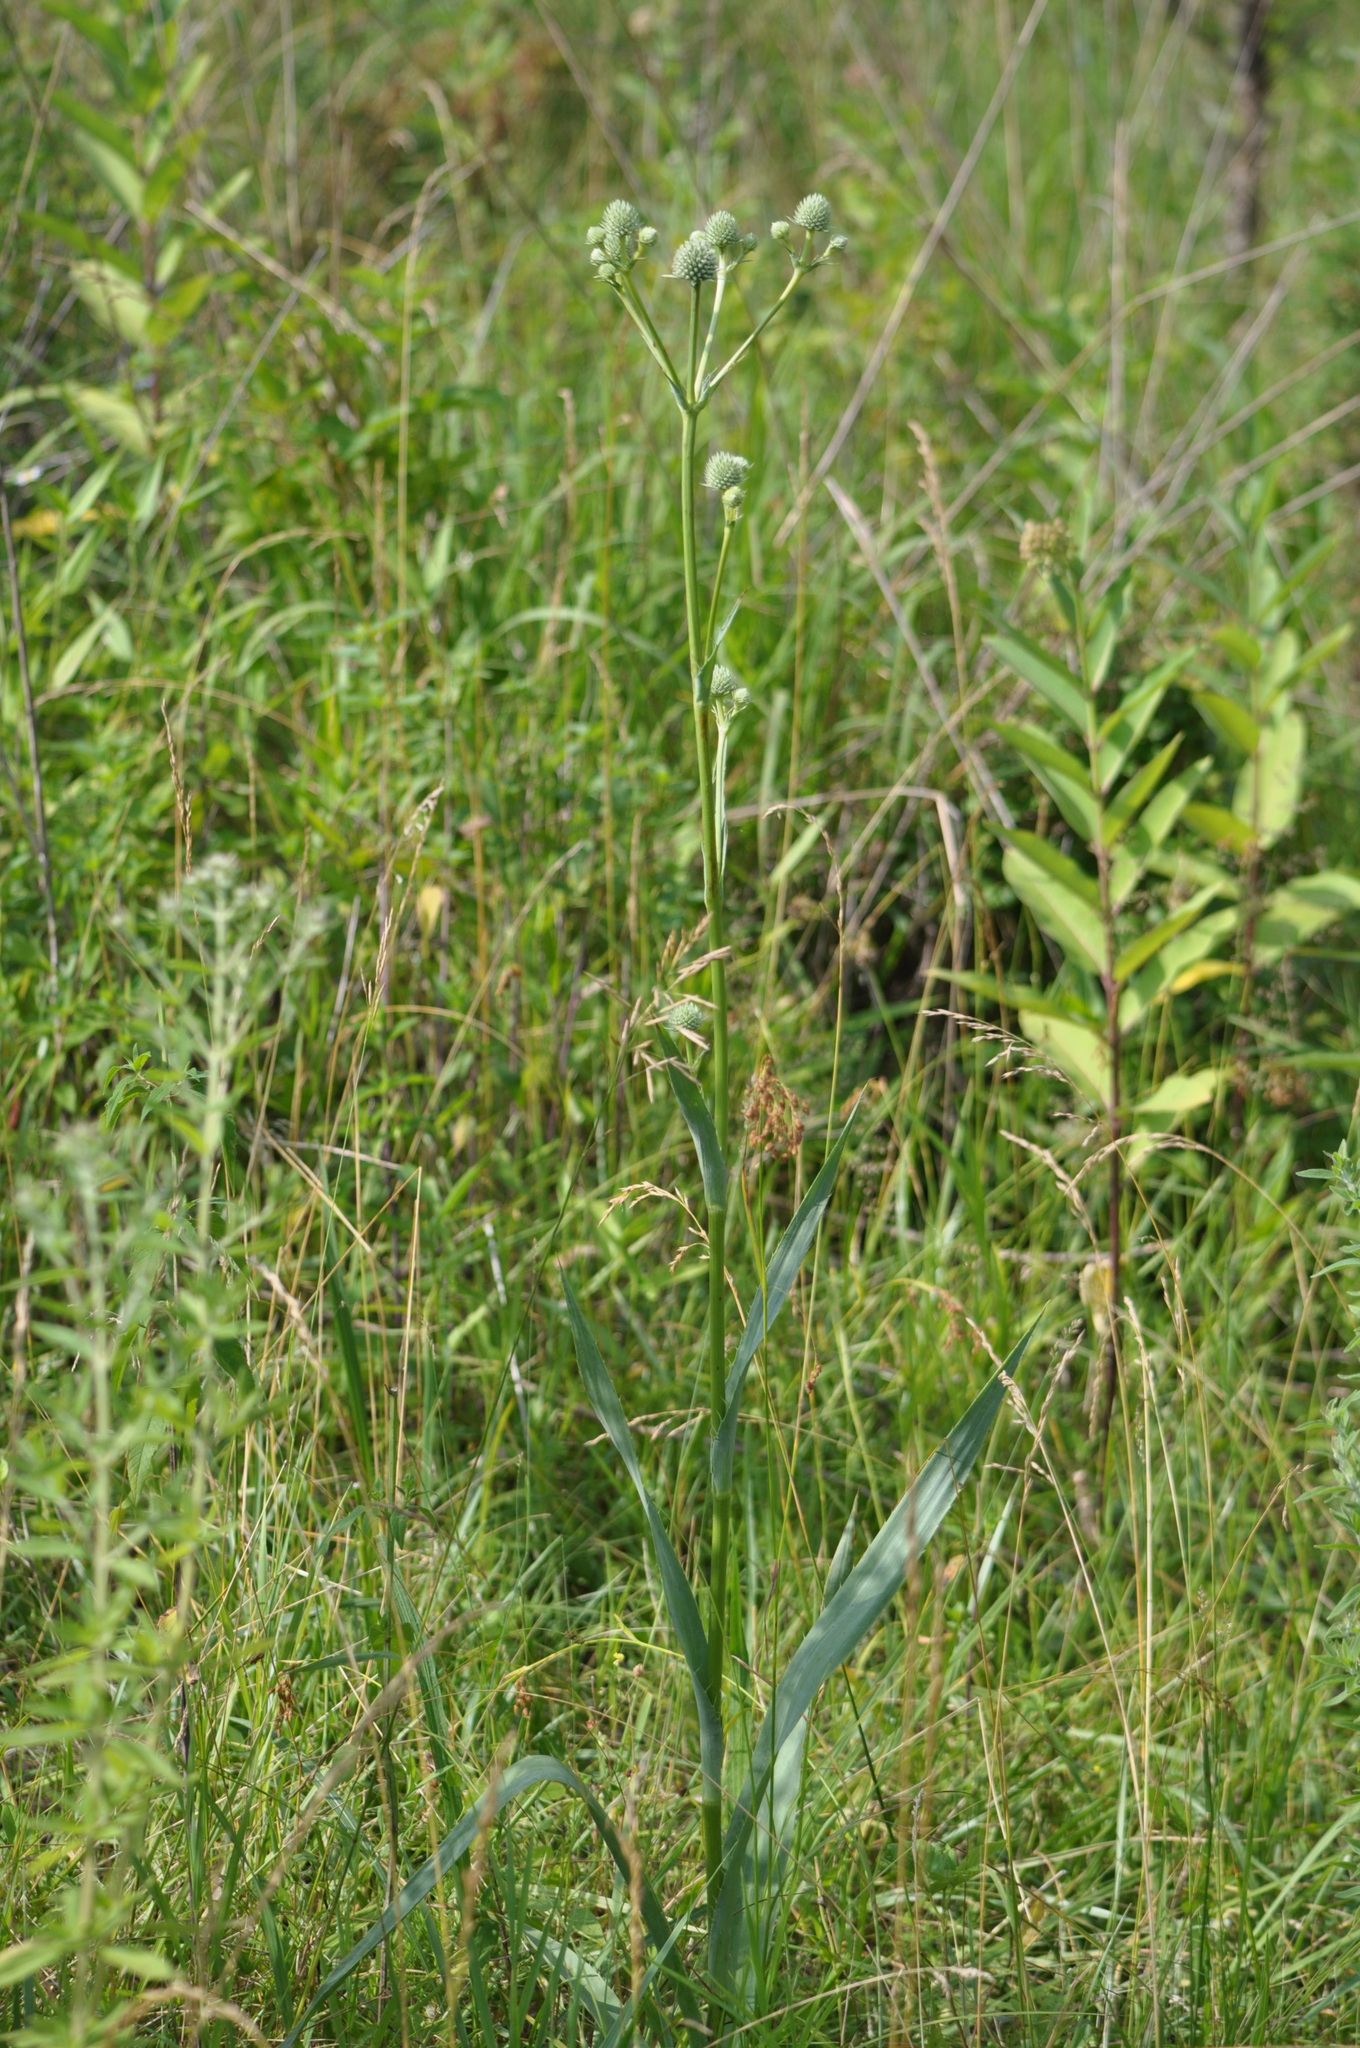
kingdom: Plantae
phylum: Tracheophyta
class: Magnoliopsida
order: Apiales
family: Apiaceae
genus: Eryngium
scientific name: Eryngium yuccifolium
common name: Button eryngo
